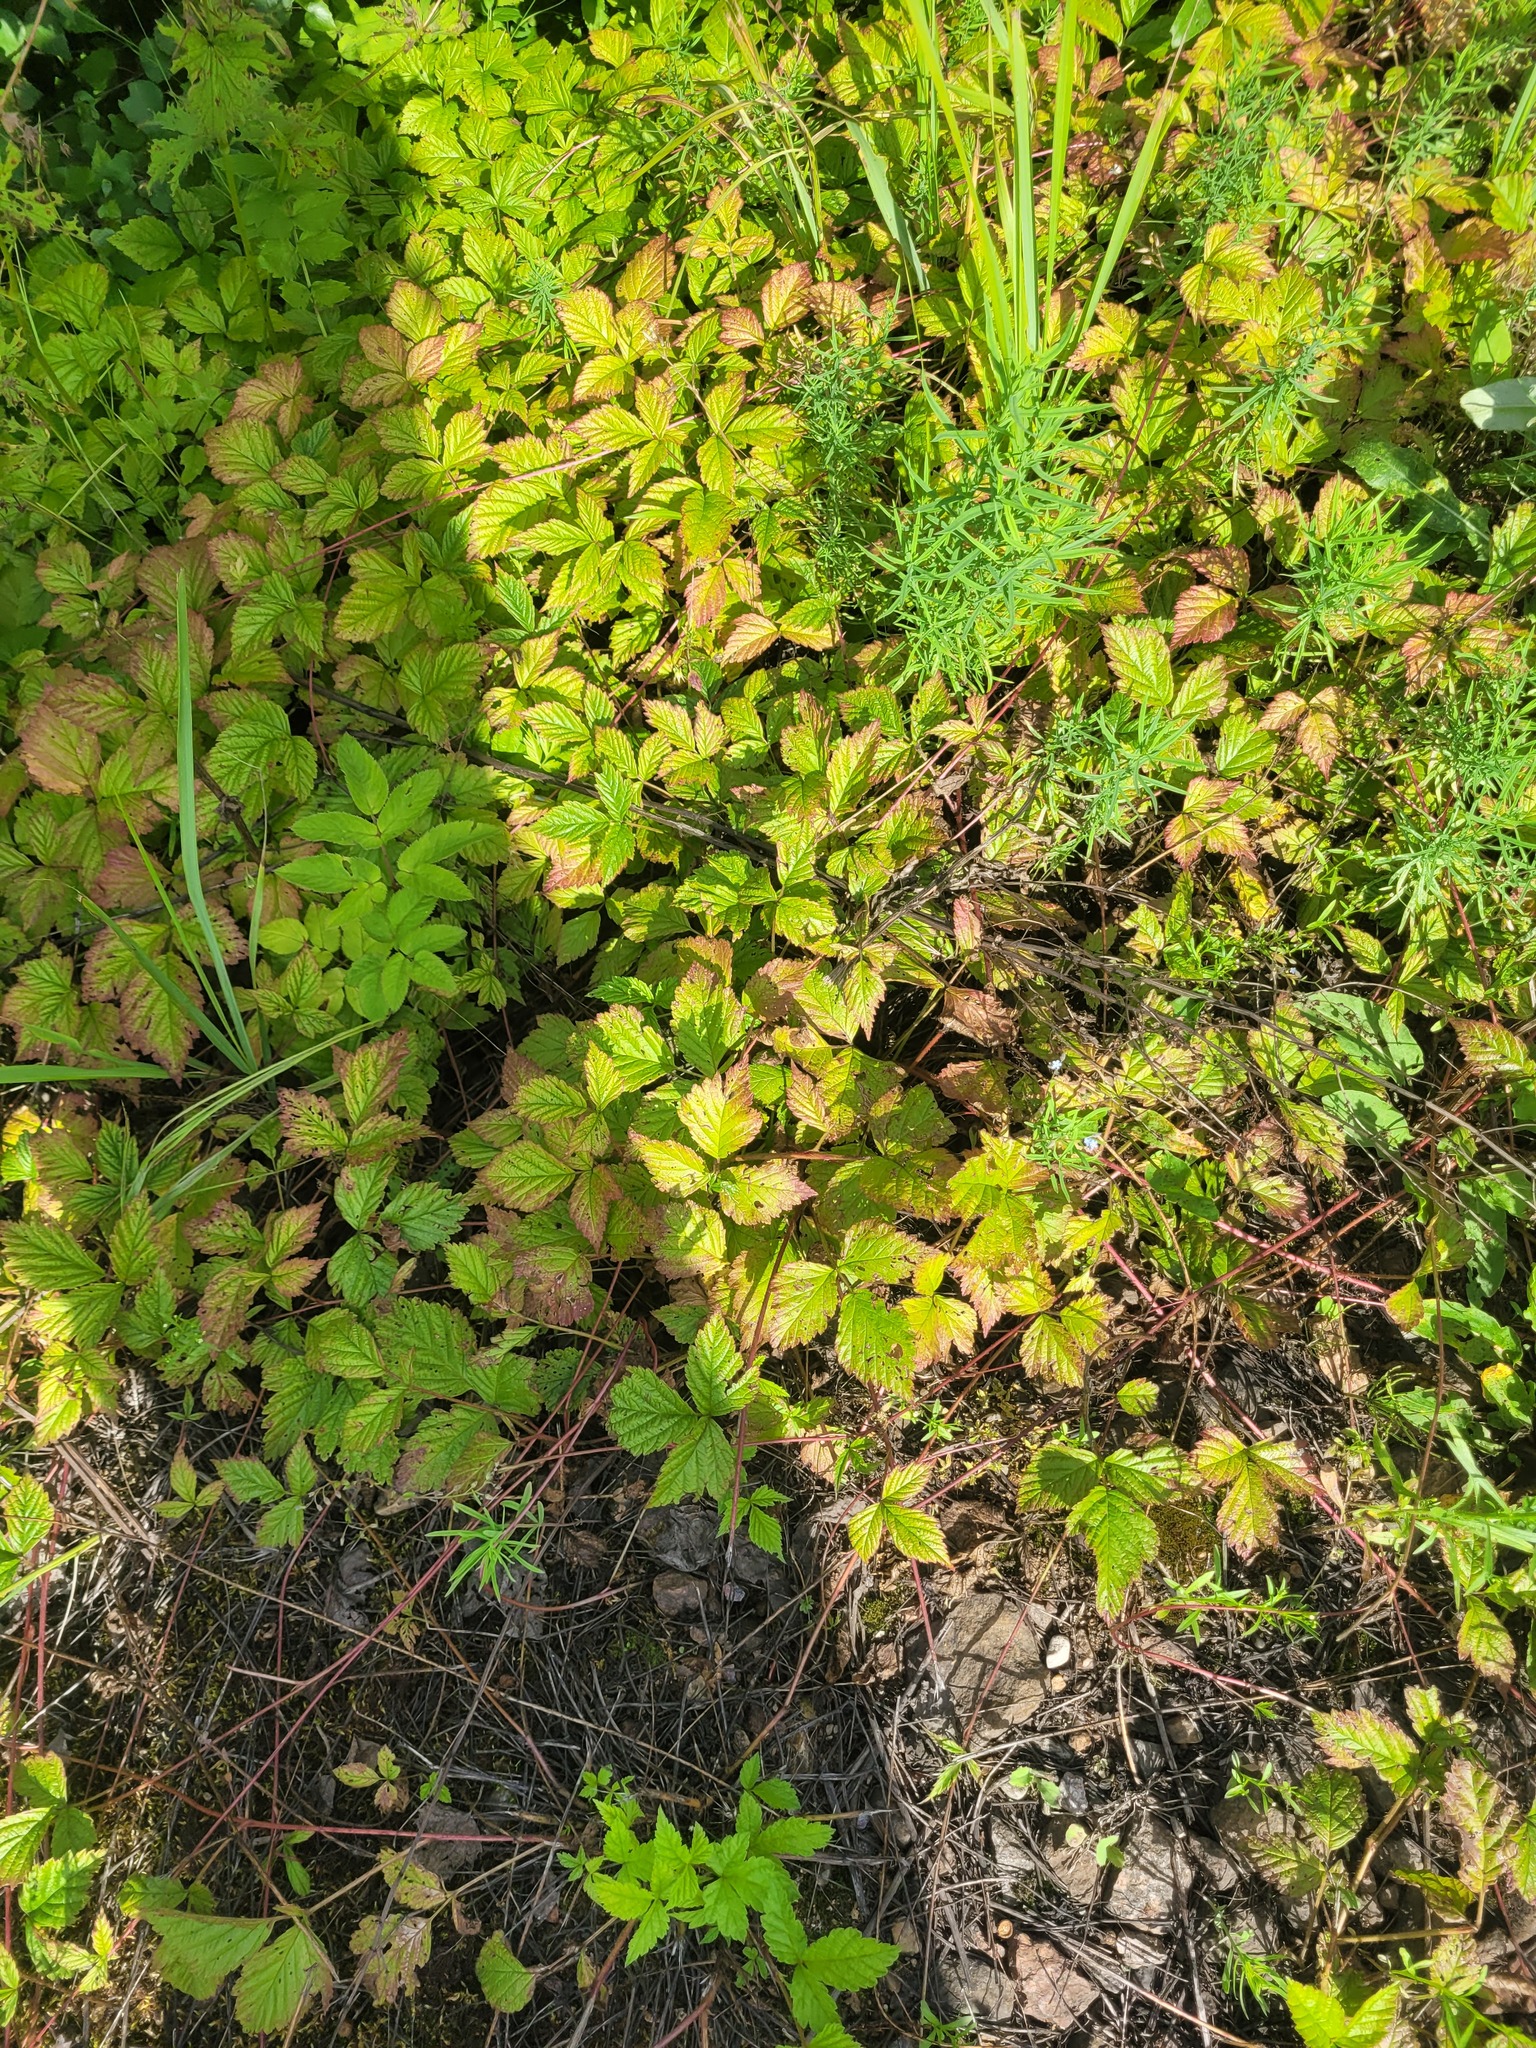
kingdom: Plantae
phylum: Tracheophyta
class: Magnoliopsida
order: Rosales
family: Rosaceae
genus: Rubus
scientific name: Rubus saxatilis
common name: Stone bramble
